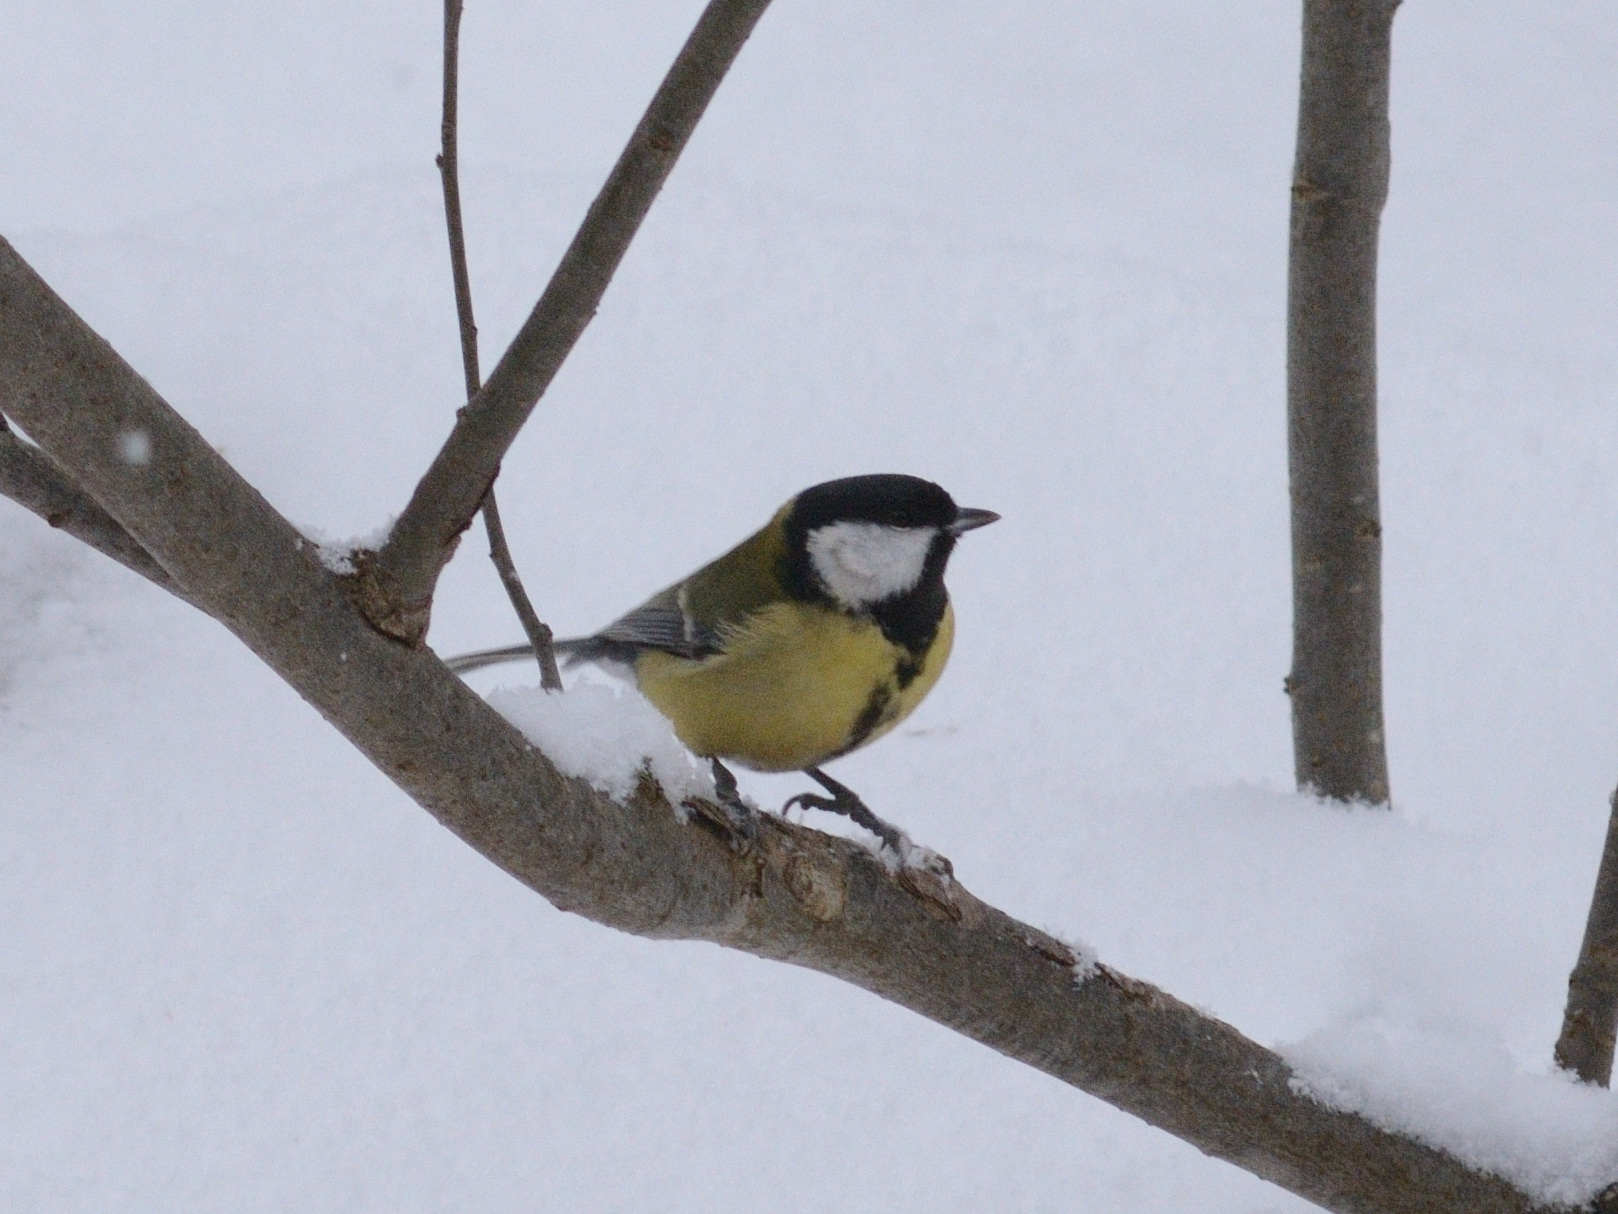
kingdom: Animalia
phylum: Chordata
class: Aves
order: Passeriformes
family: Paridae
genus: Parus
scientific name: Parus major
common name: Great tit
